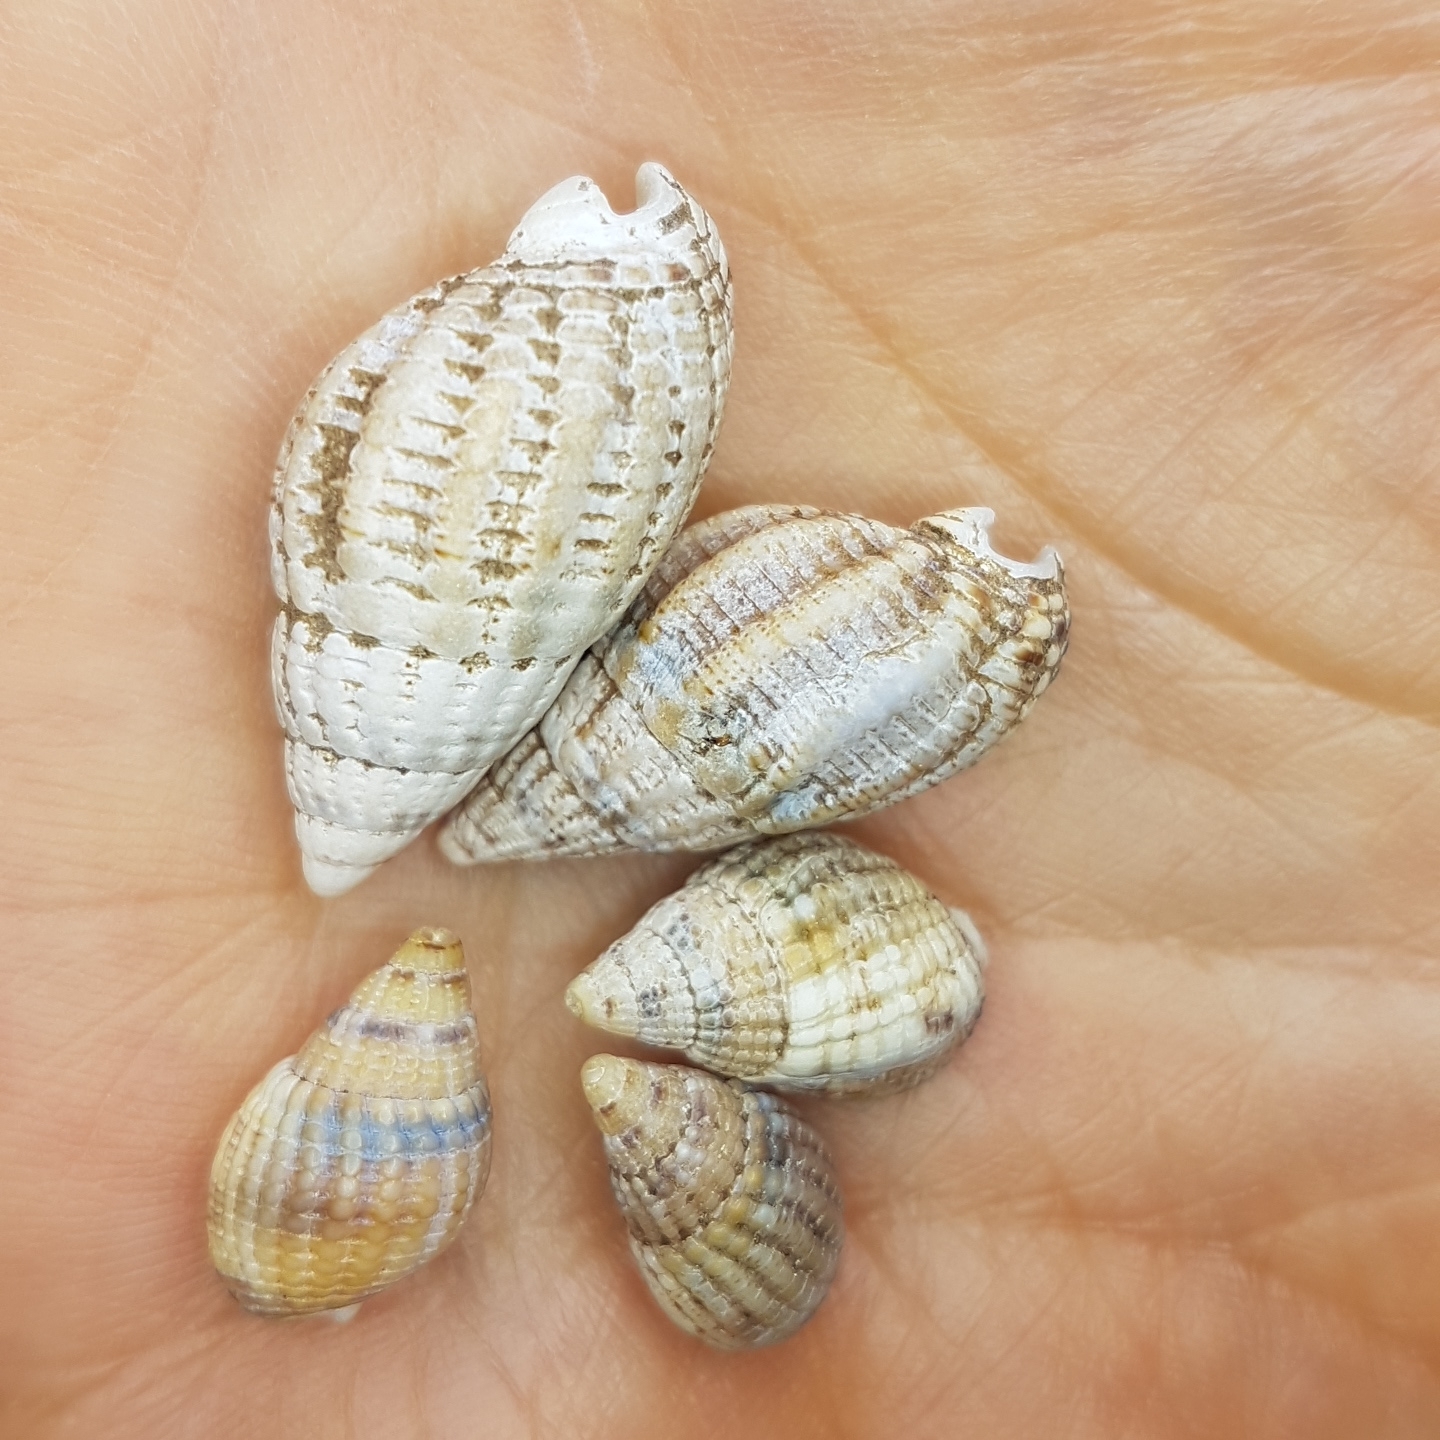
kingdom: Animalia
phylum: Mollusca
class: Gastropoda
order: Neogastropoda
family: Nassariidae
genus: Tritia
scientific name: Tritia reticulata
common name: Netted dog whelk
